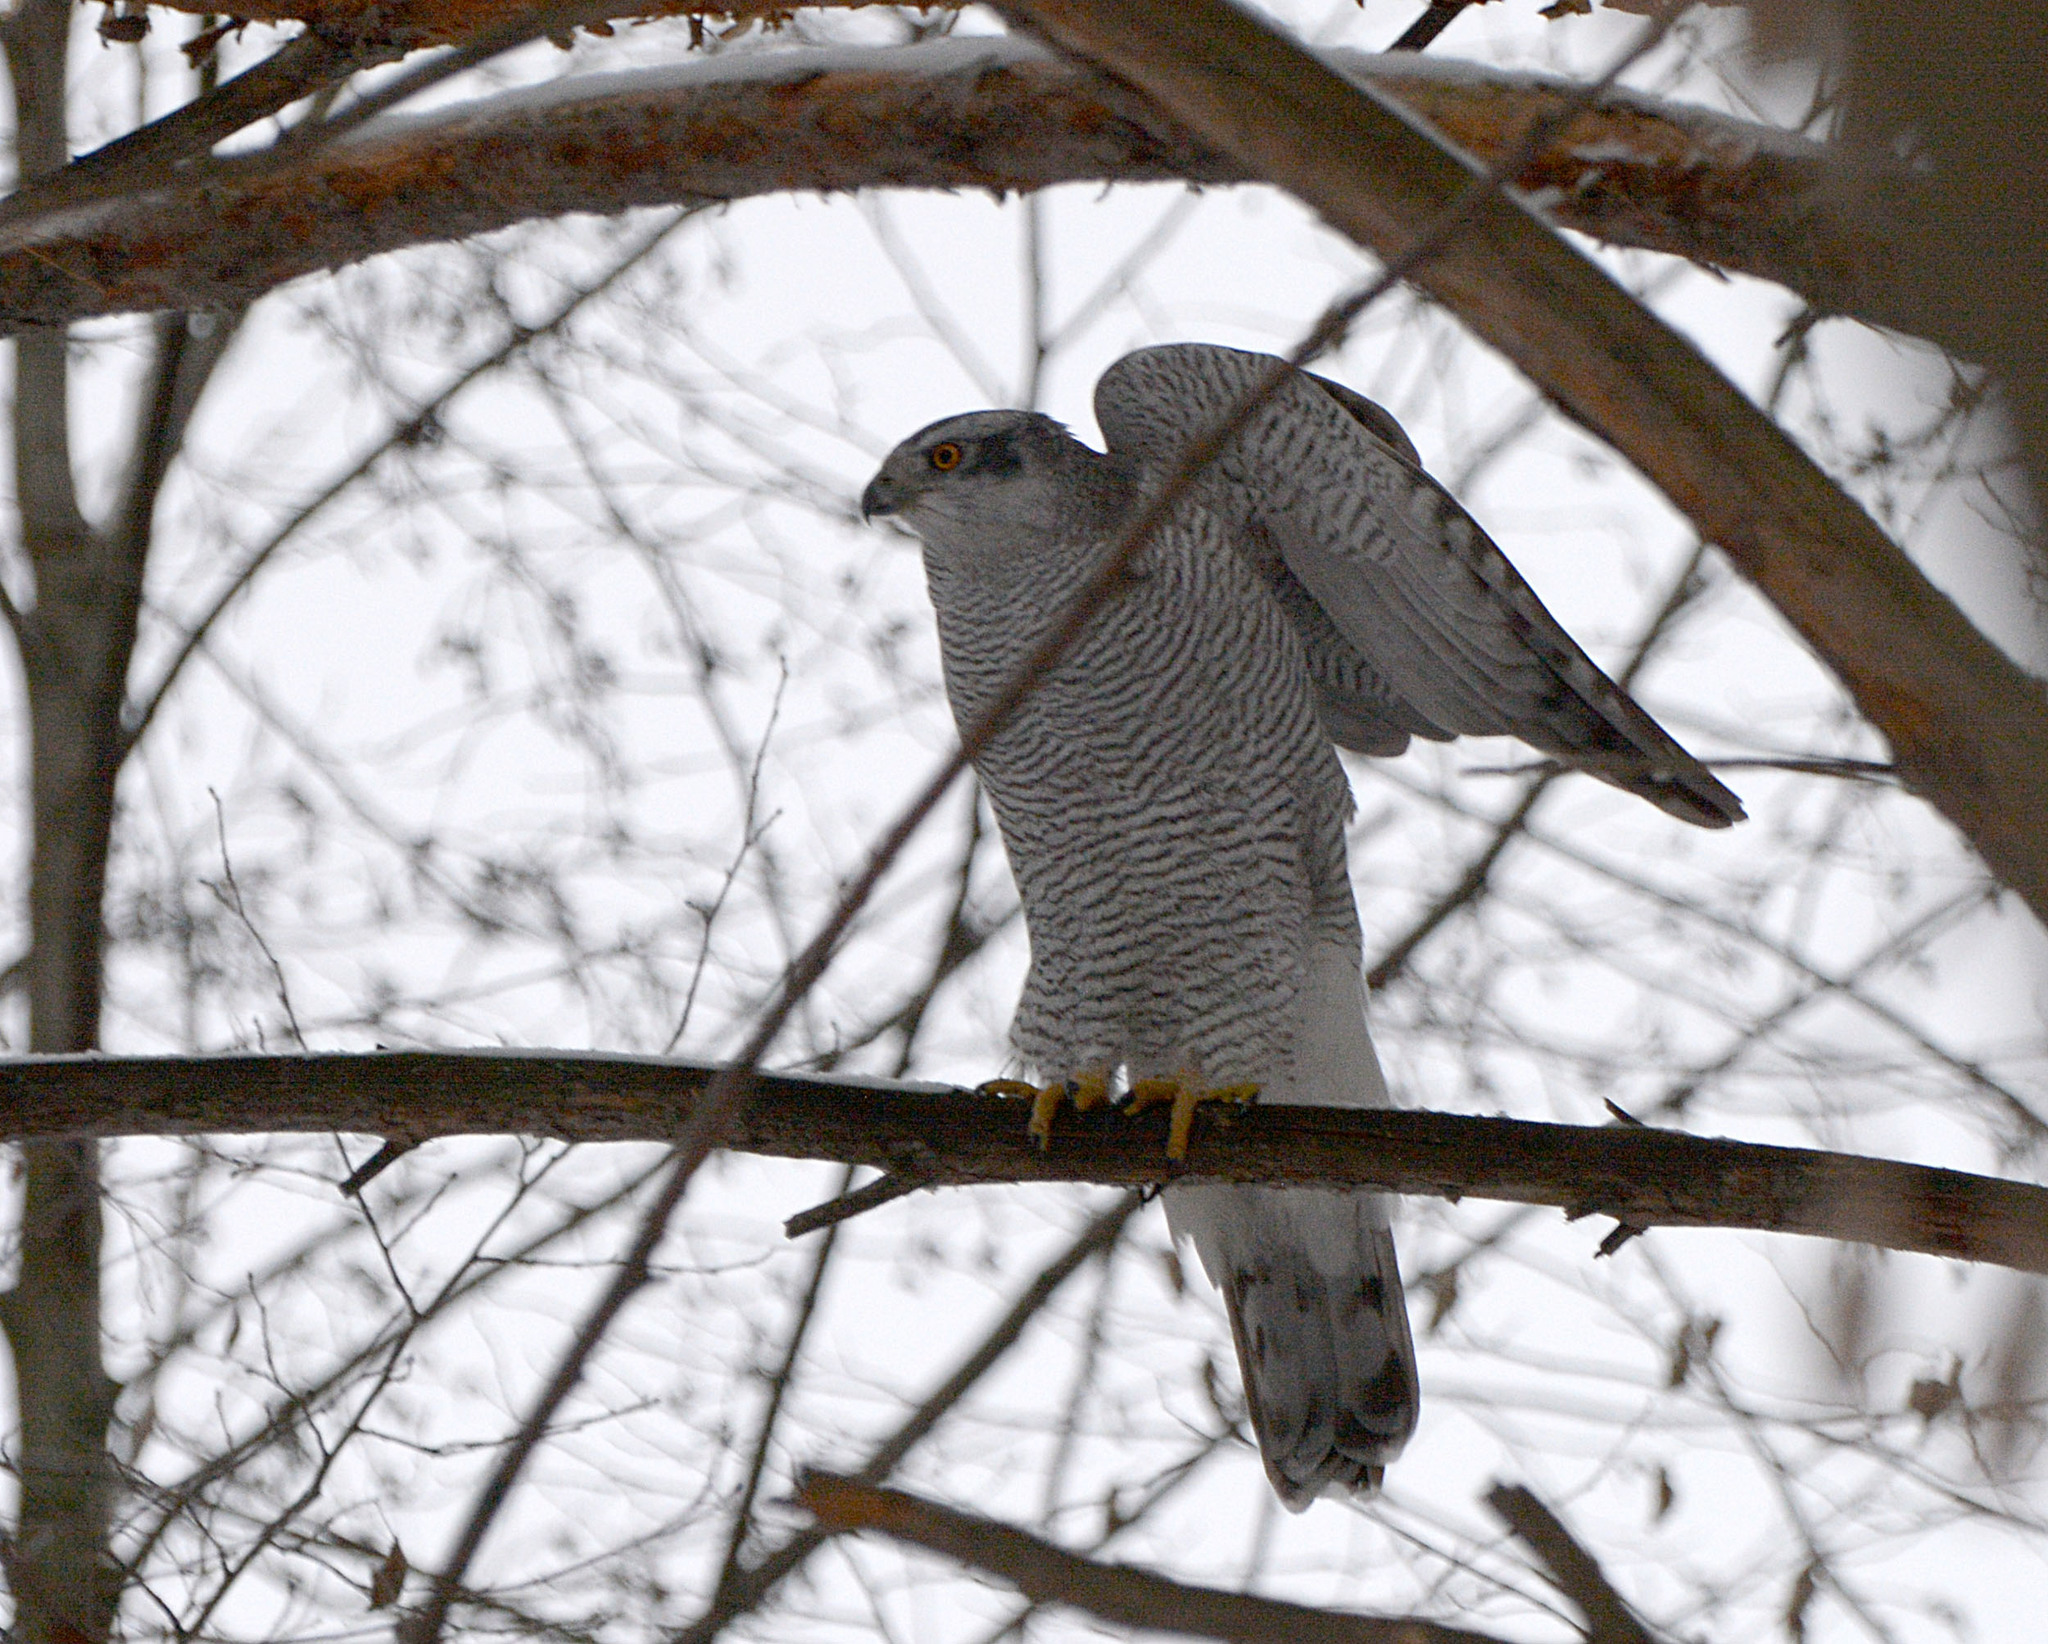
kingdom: Animalia
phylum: Chordata
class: Aves
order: Accipitriformes
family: Accipitridae
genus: Accipiter
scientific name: Accipiter gentilis
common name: Northern goshawk
